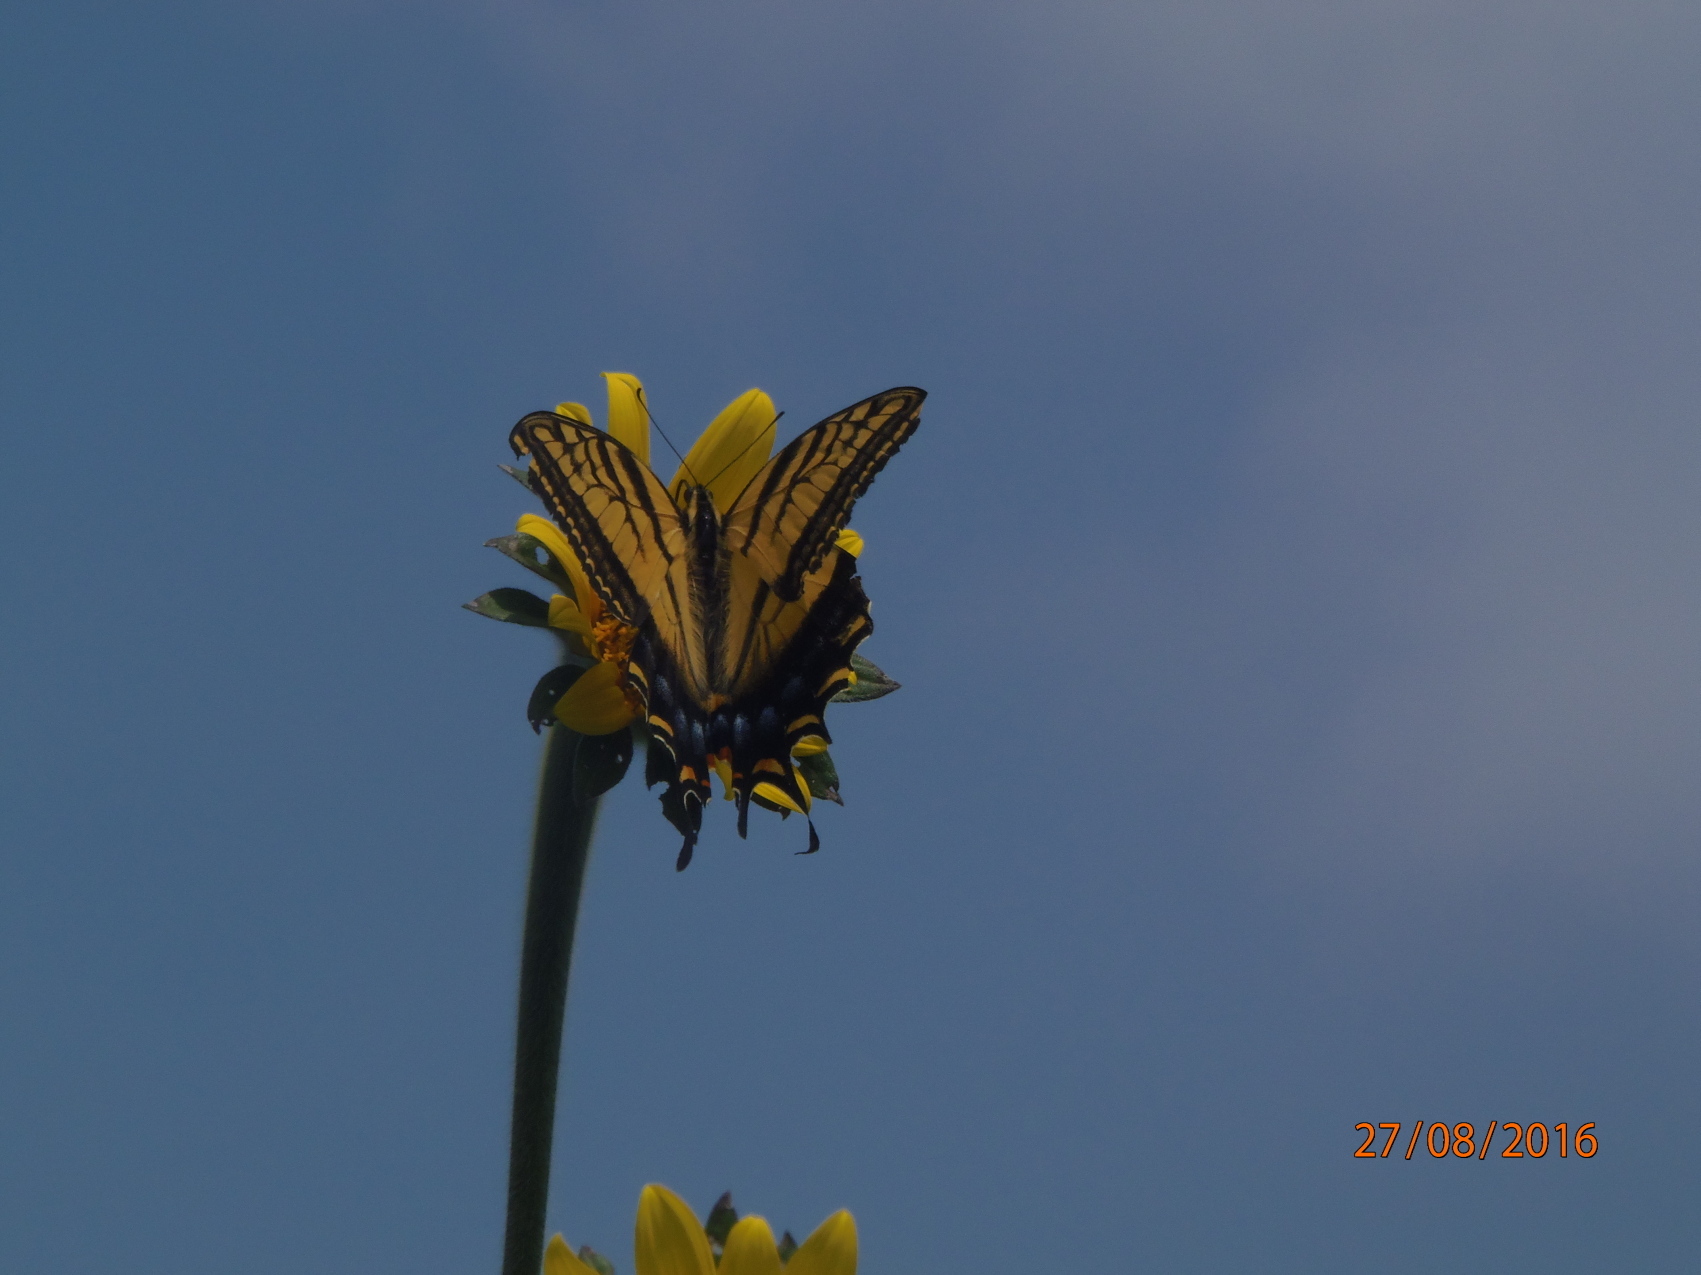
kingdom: Animalia
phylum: Arthropoda
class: Insecta
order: Lepidoptera
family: Papilionidae
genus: Papilio
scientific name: Papilio multicaudata
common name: Two-tailed tiger swallowtail
